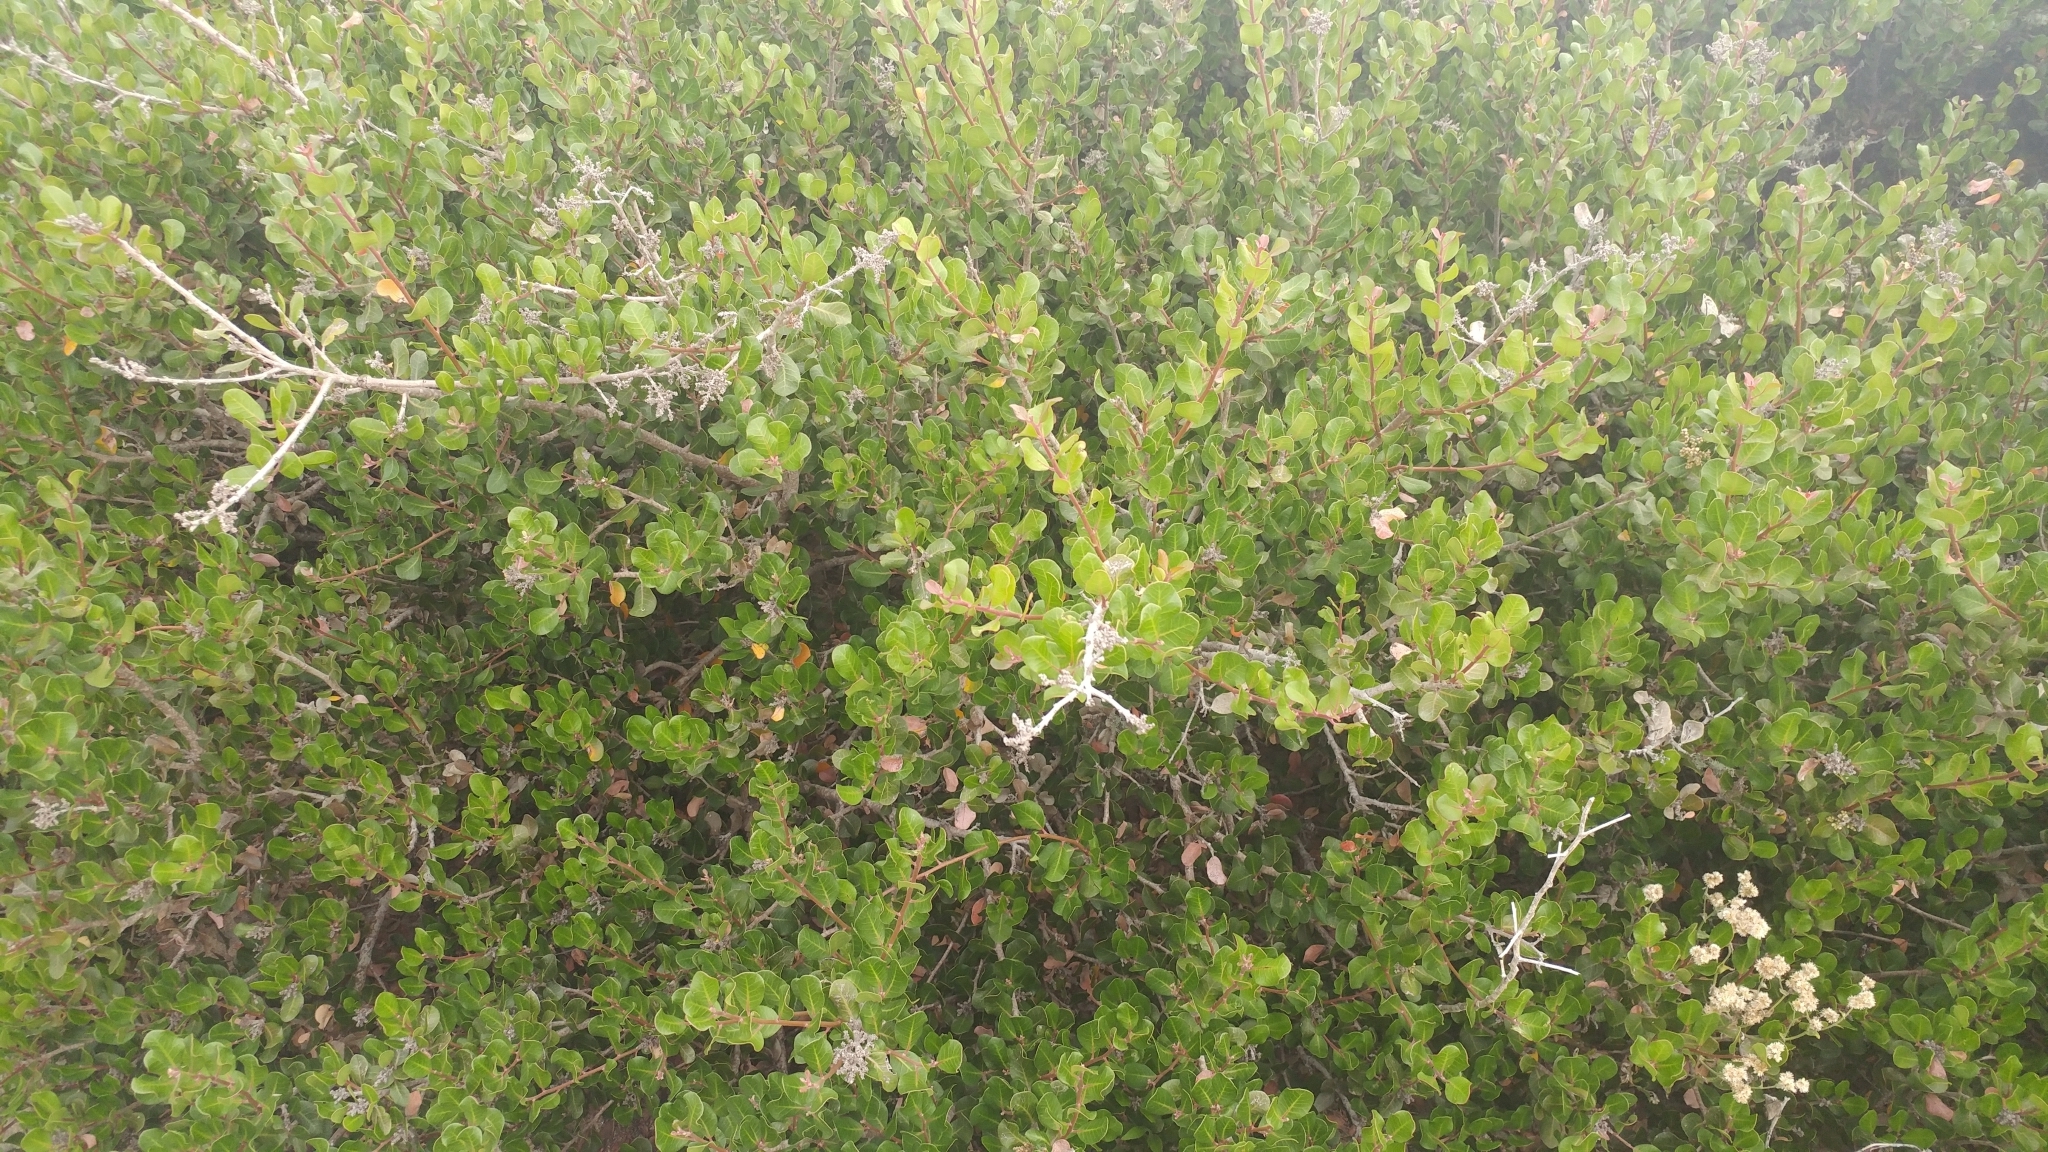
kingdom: Plantae
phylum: Tracheophyta
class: Magnoliopsida
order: Sapindales
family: Anacardiaceae
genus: Rhus
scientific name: Rhus integrifolia
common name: Lemonade sumac
